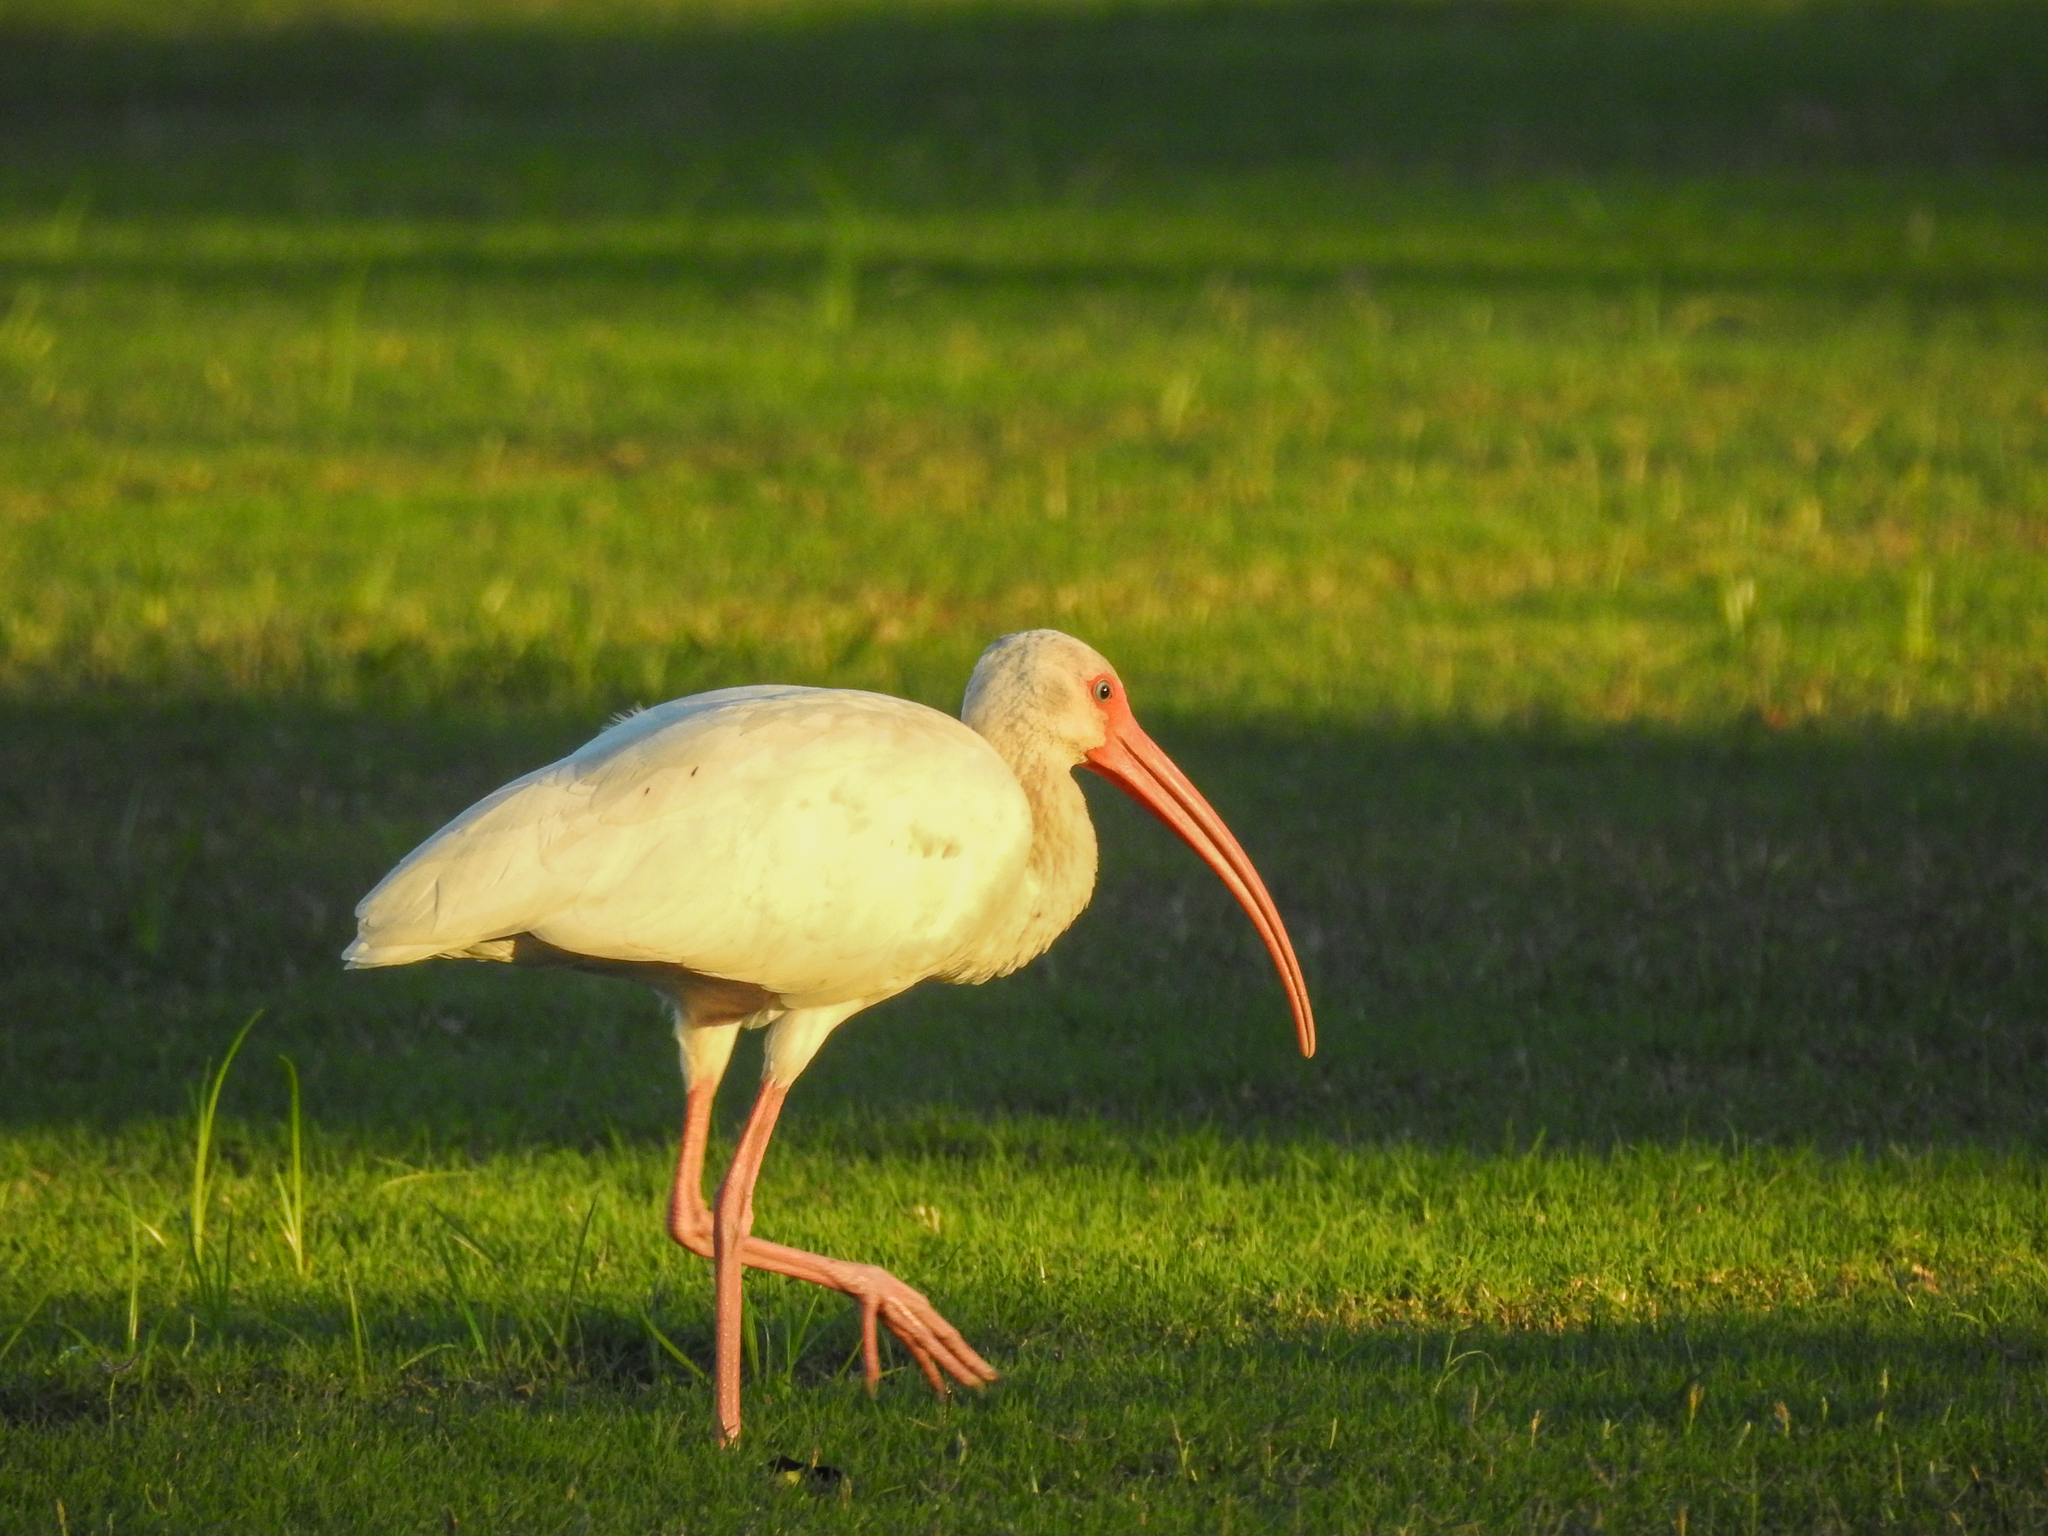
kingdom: Animalia
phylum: Chordata
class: Aves
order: Pelecaniformes
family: Threskiornithidae
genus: Eudocimus
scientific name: Eudocimus albus
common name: White ibis
